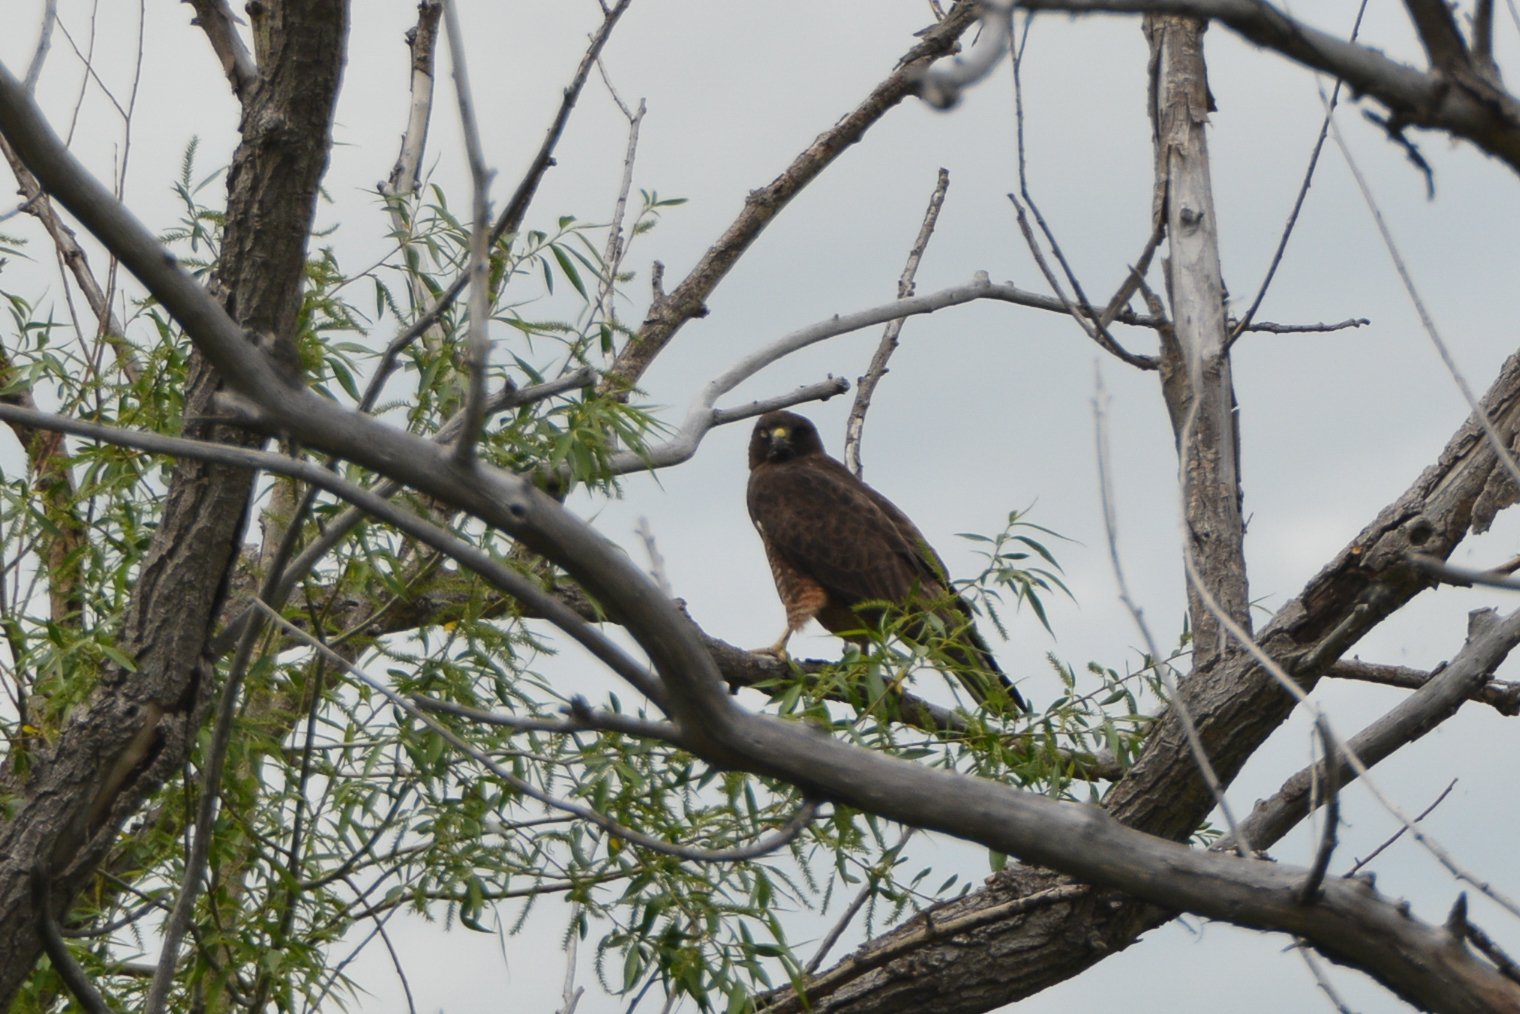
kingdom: Animalia
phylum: Chordata
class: Aves
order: Accipitriformes
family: Accipitridae
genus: Buteo
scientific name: Buteo swainsoni
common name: Swainson's hawk
